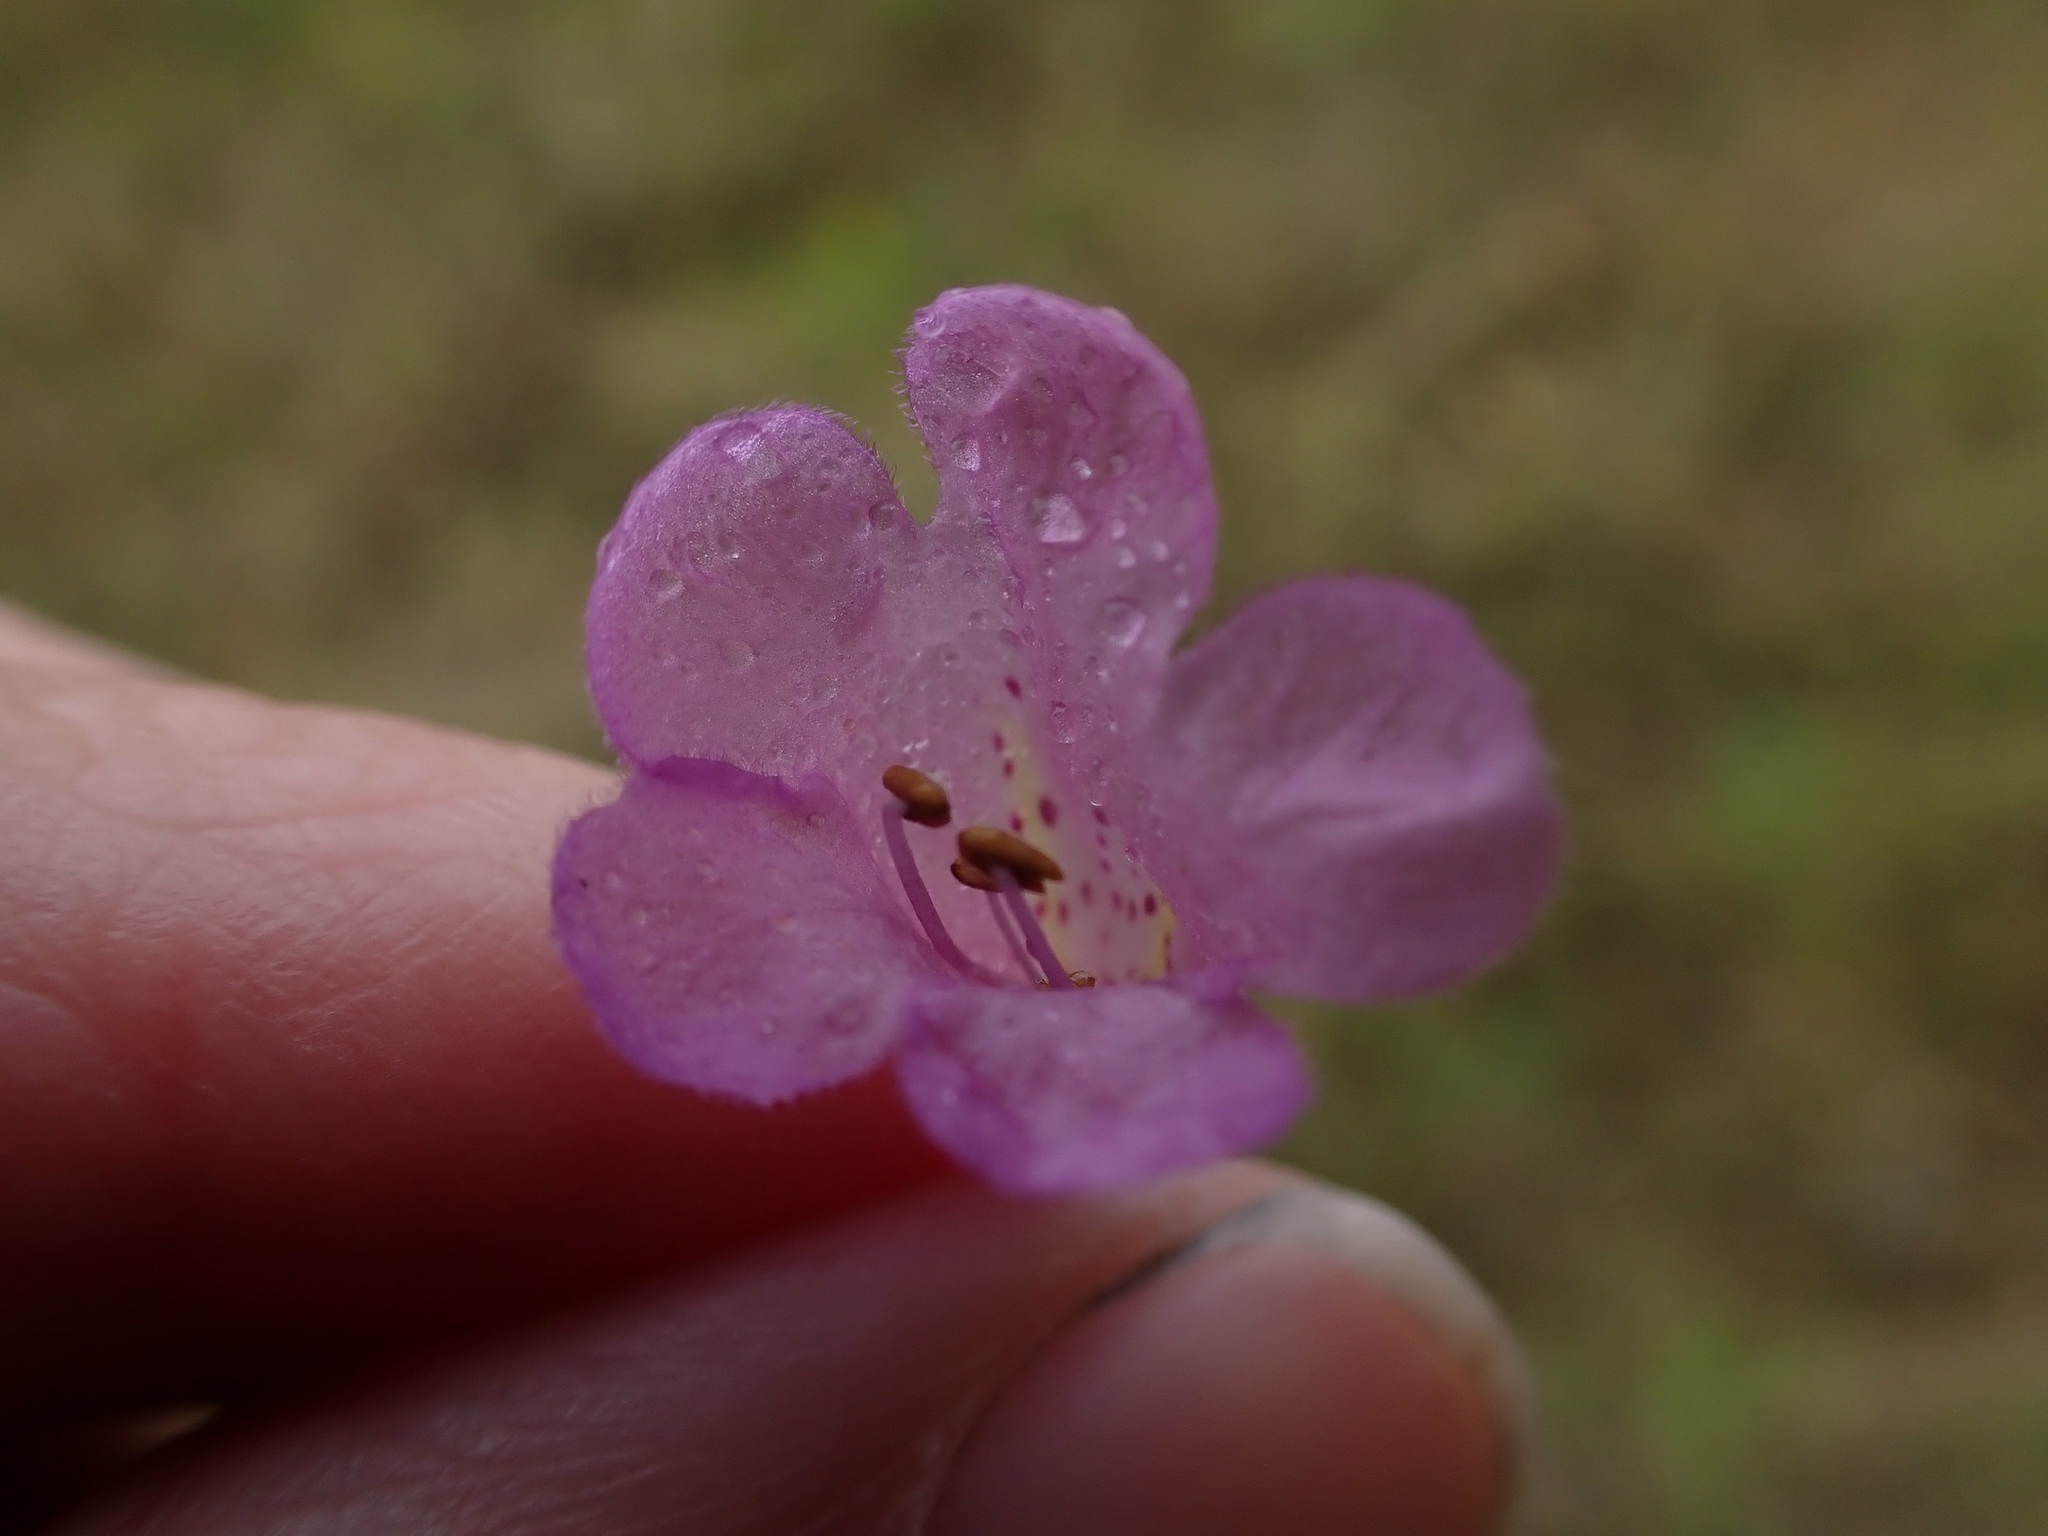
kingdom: Plantae
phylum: Tracheophyta
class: Magnoliopsida
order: Lamiales
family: Orobanchaceae
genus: Agalinis
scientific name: Agalinis gattingeri
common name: Gattinger's agalinis
